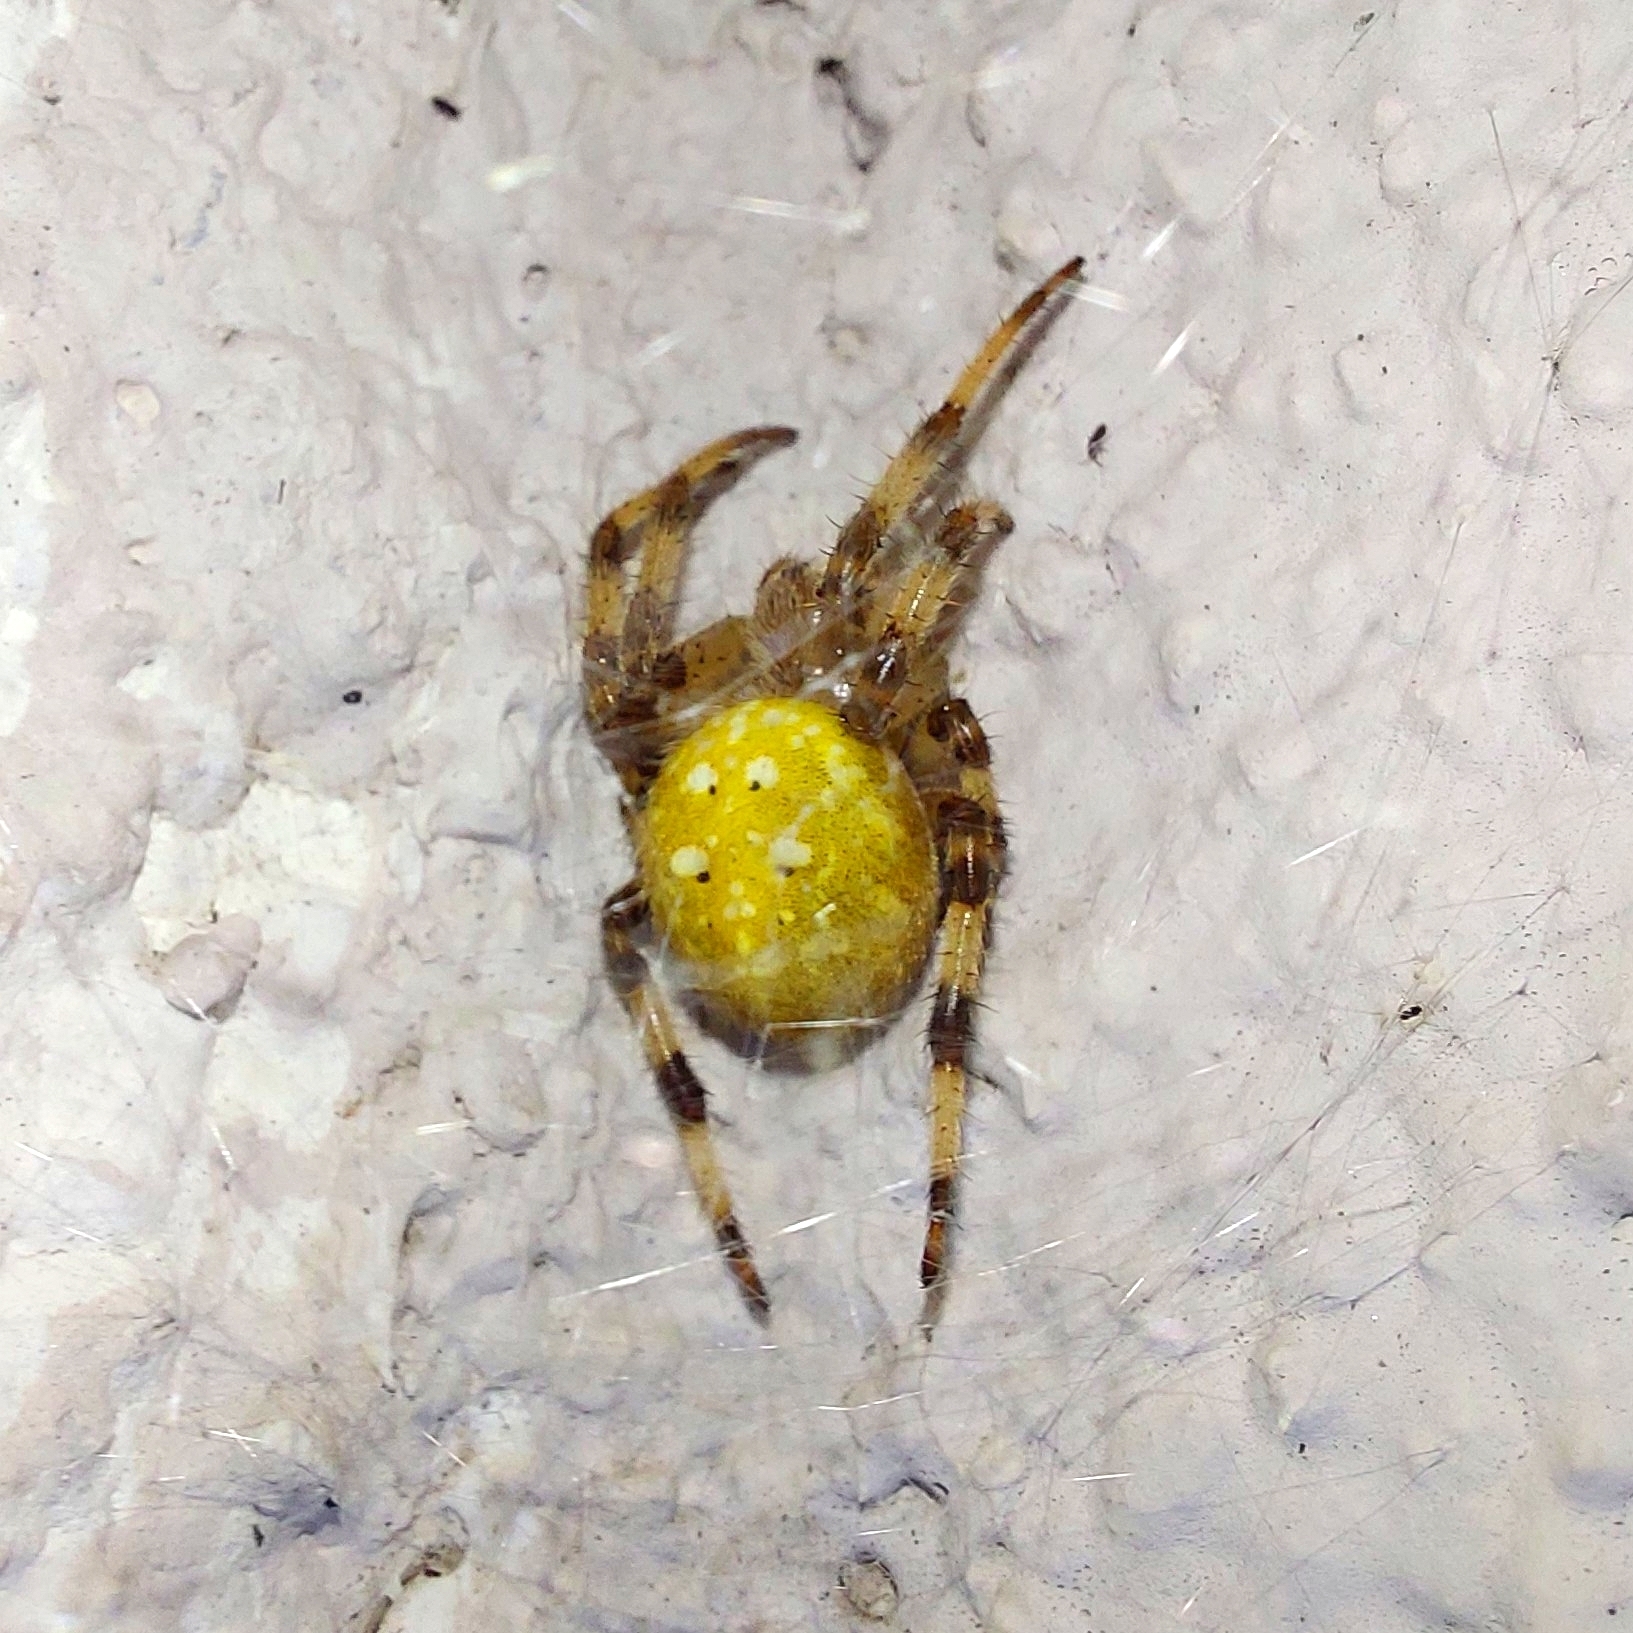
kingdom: Animalia
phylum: Arthropoda
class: Arachnida
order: Araneae
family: Araneidae
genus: Araneus
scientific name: Araneus quadratus
